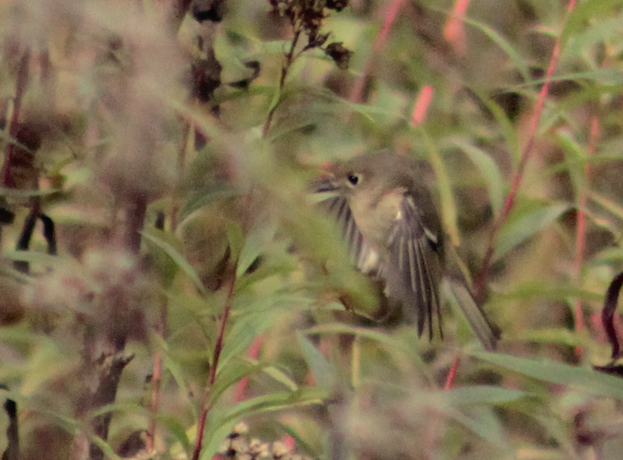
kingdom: Animalia
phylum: Chordata
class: Aves
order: Passeriformes
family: Regulidae
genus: Regulus
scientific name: Regulus calendula
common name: Ruby-crowned kinglet
